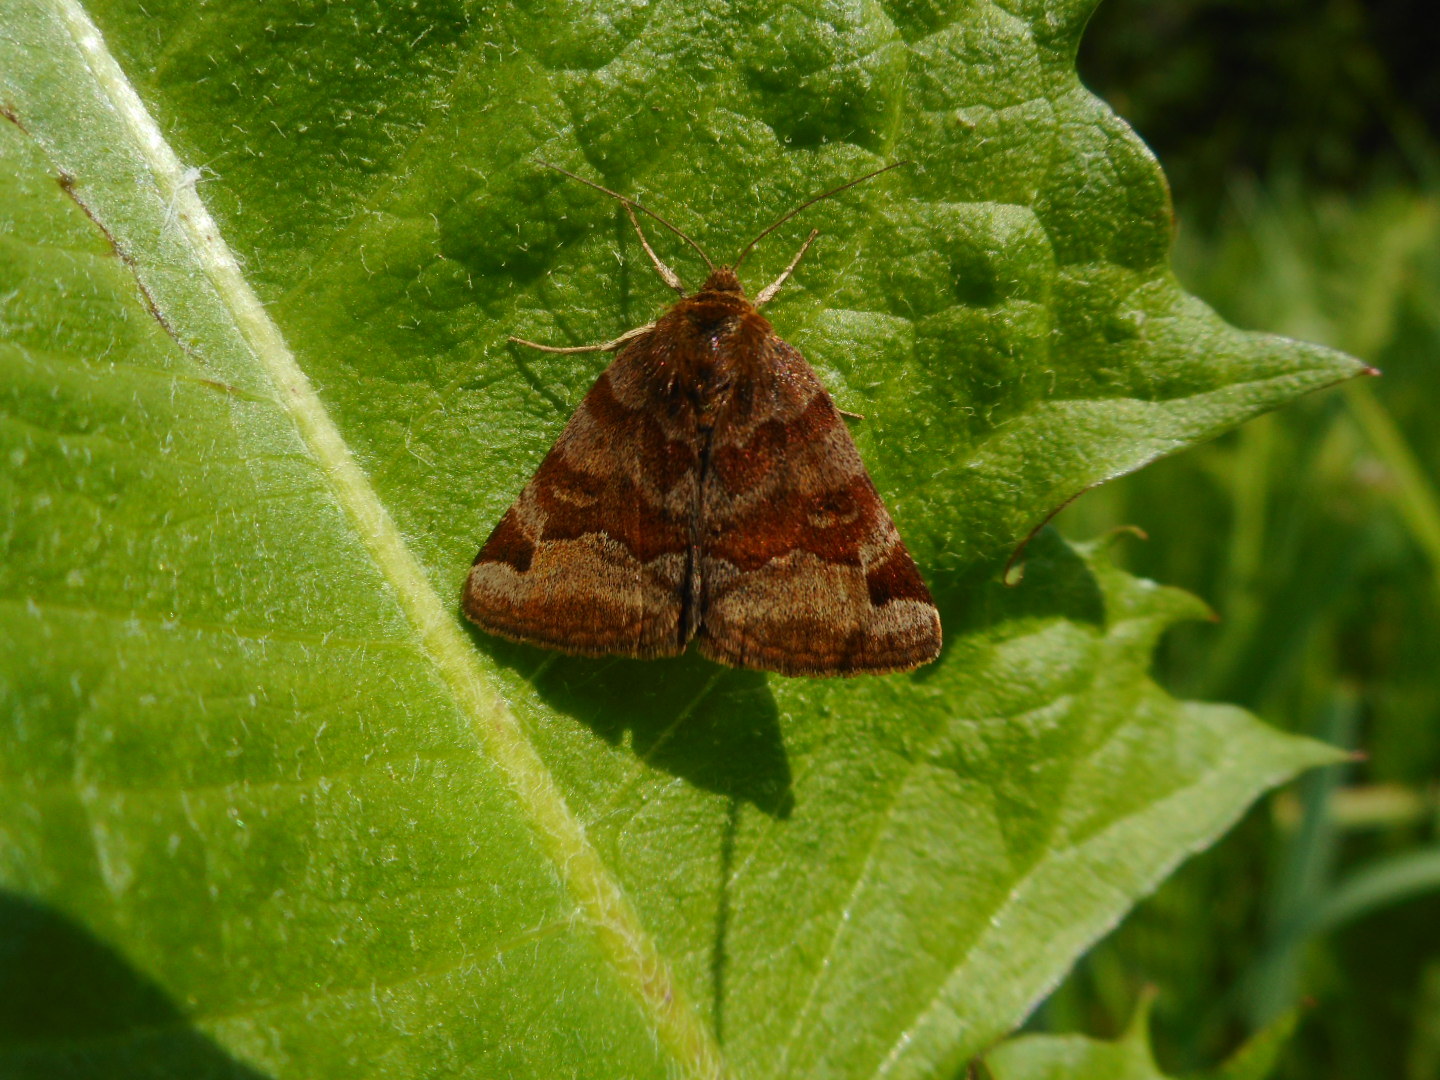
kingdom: Animalia
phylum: Arthropoda
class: Insecta
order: Lepidoptera
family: Erebidae
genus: Euclidia
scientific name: Euclidia glyphica
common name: Burnet companion
